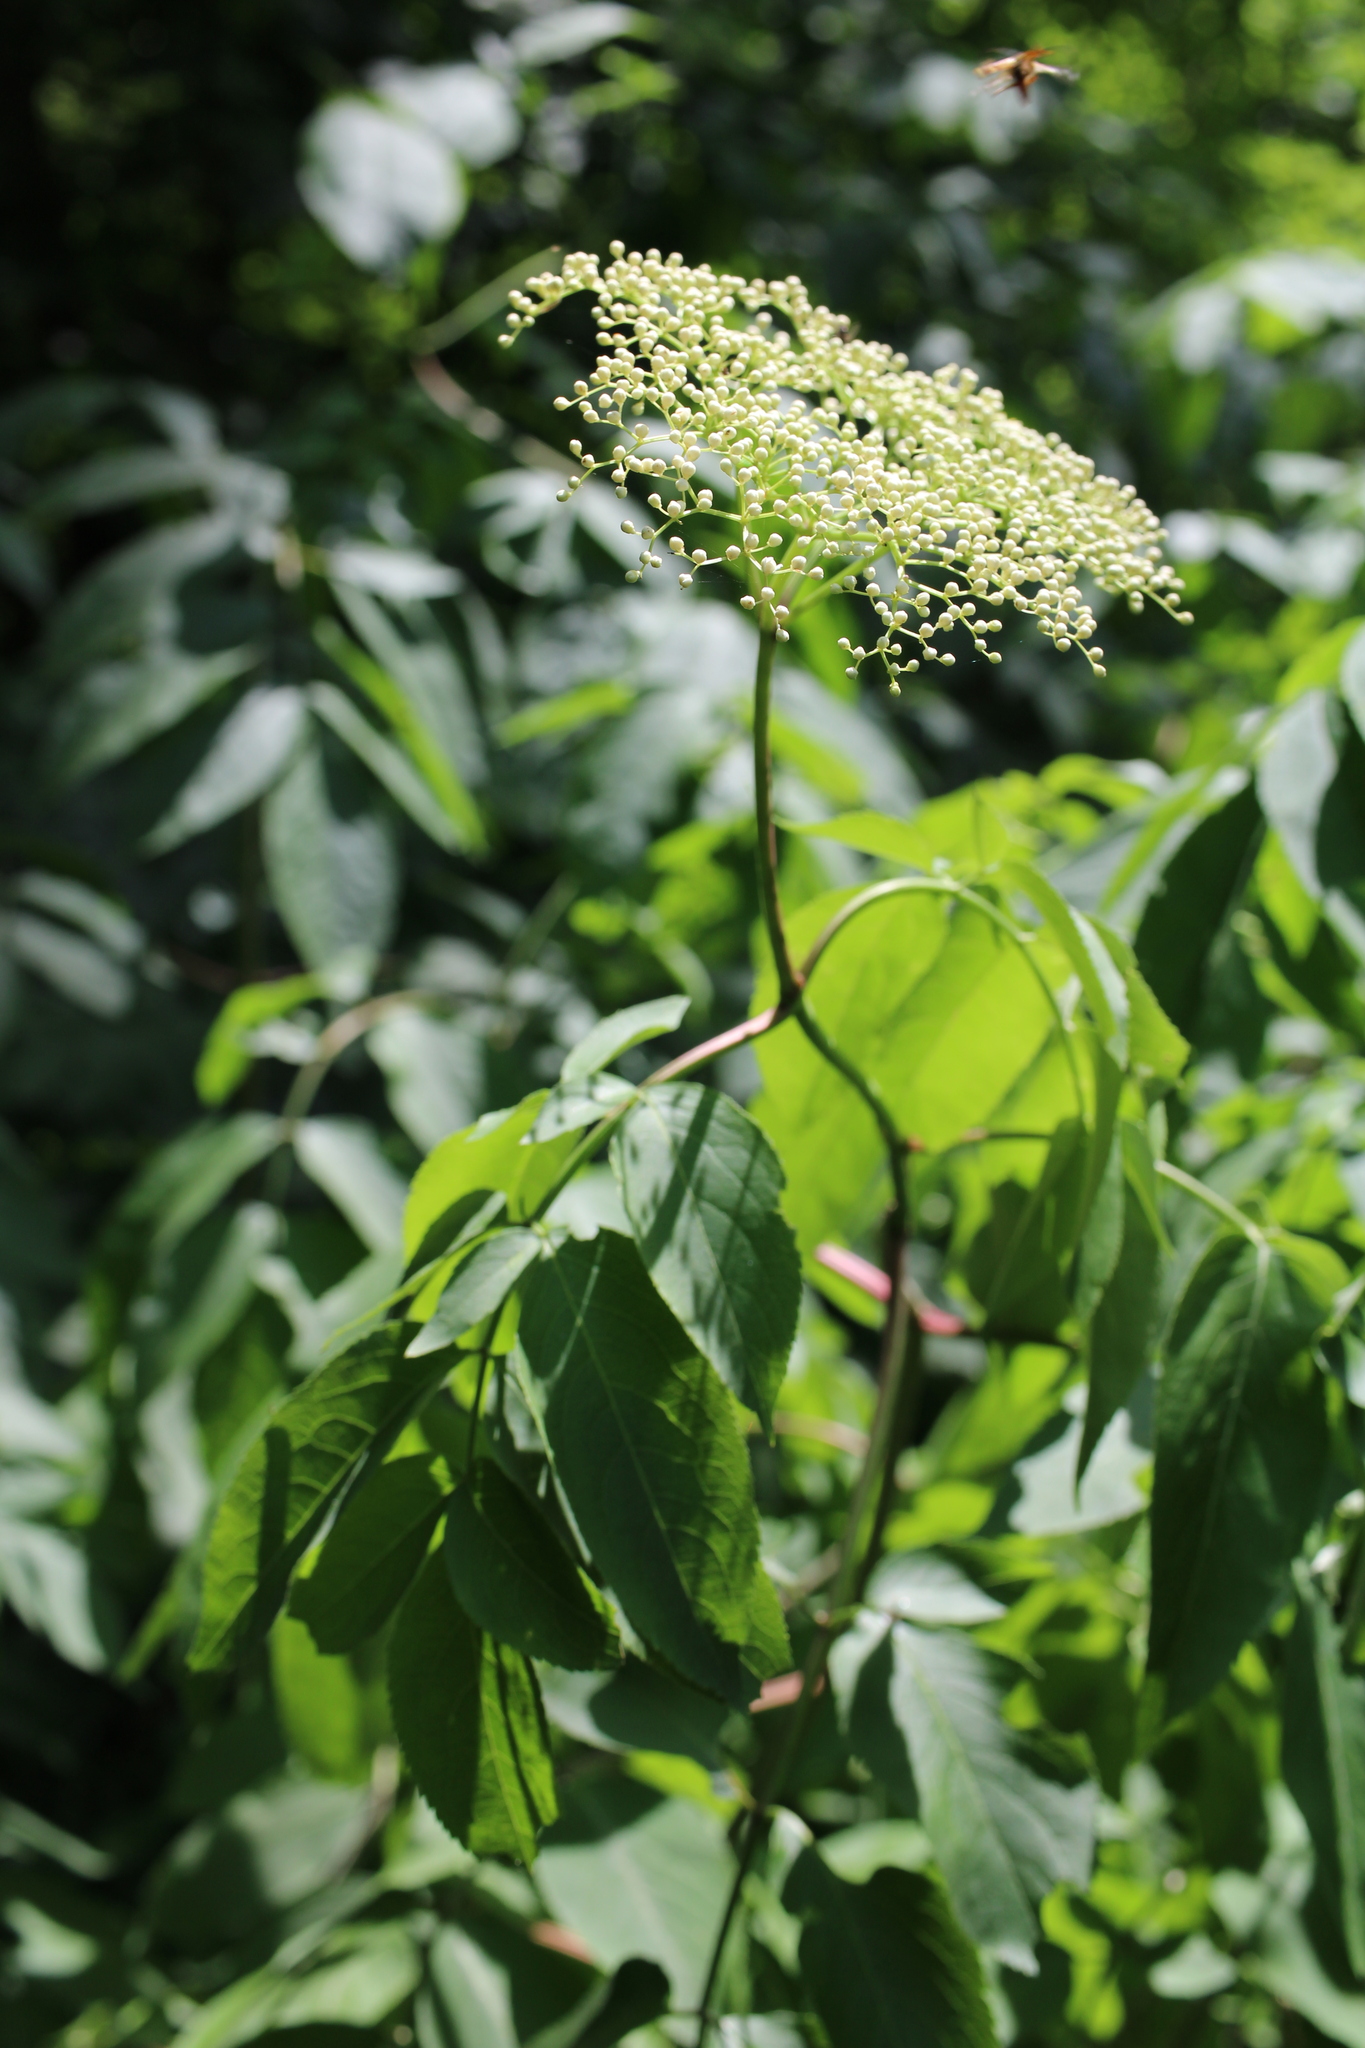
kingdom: Plantae
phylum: Tracheophyta
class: Magnoliopsida
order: Dipsacales
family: Viburnaceae
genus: Sambucus
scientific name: Sambucus canadensis
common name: American elder
